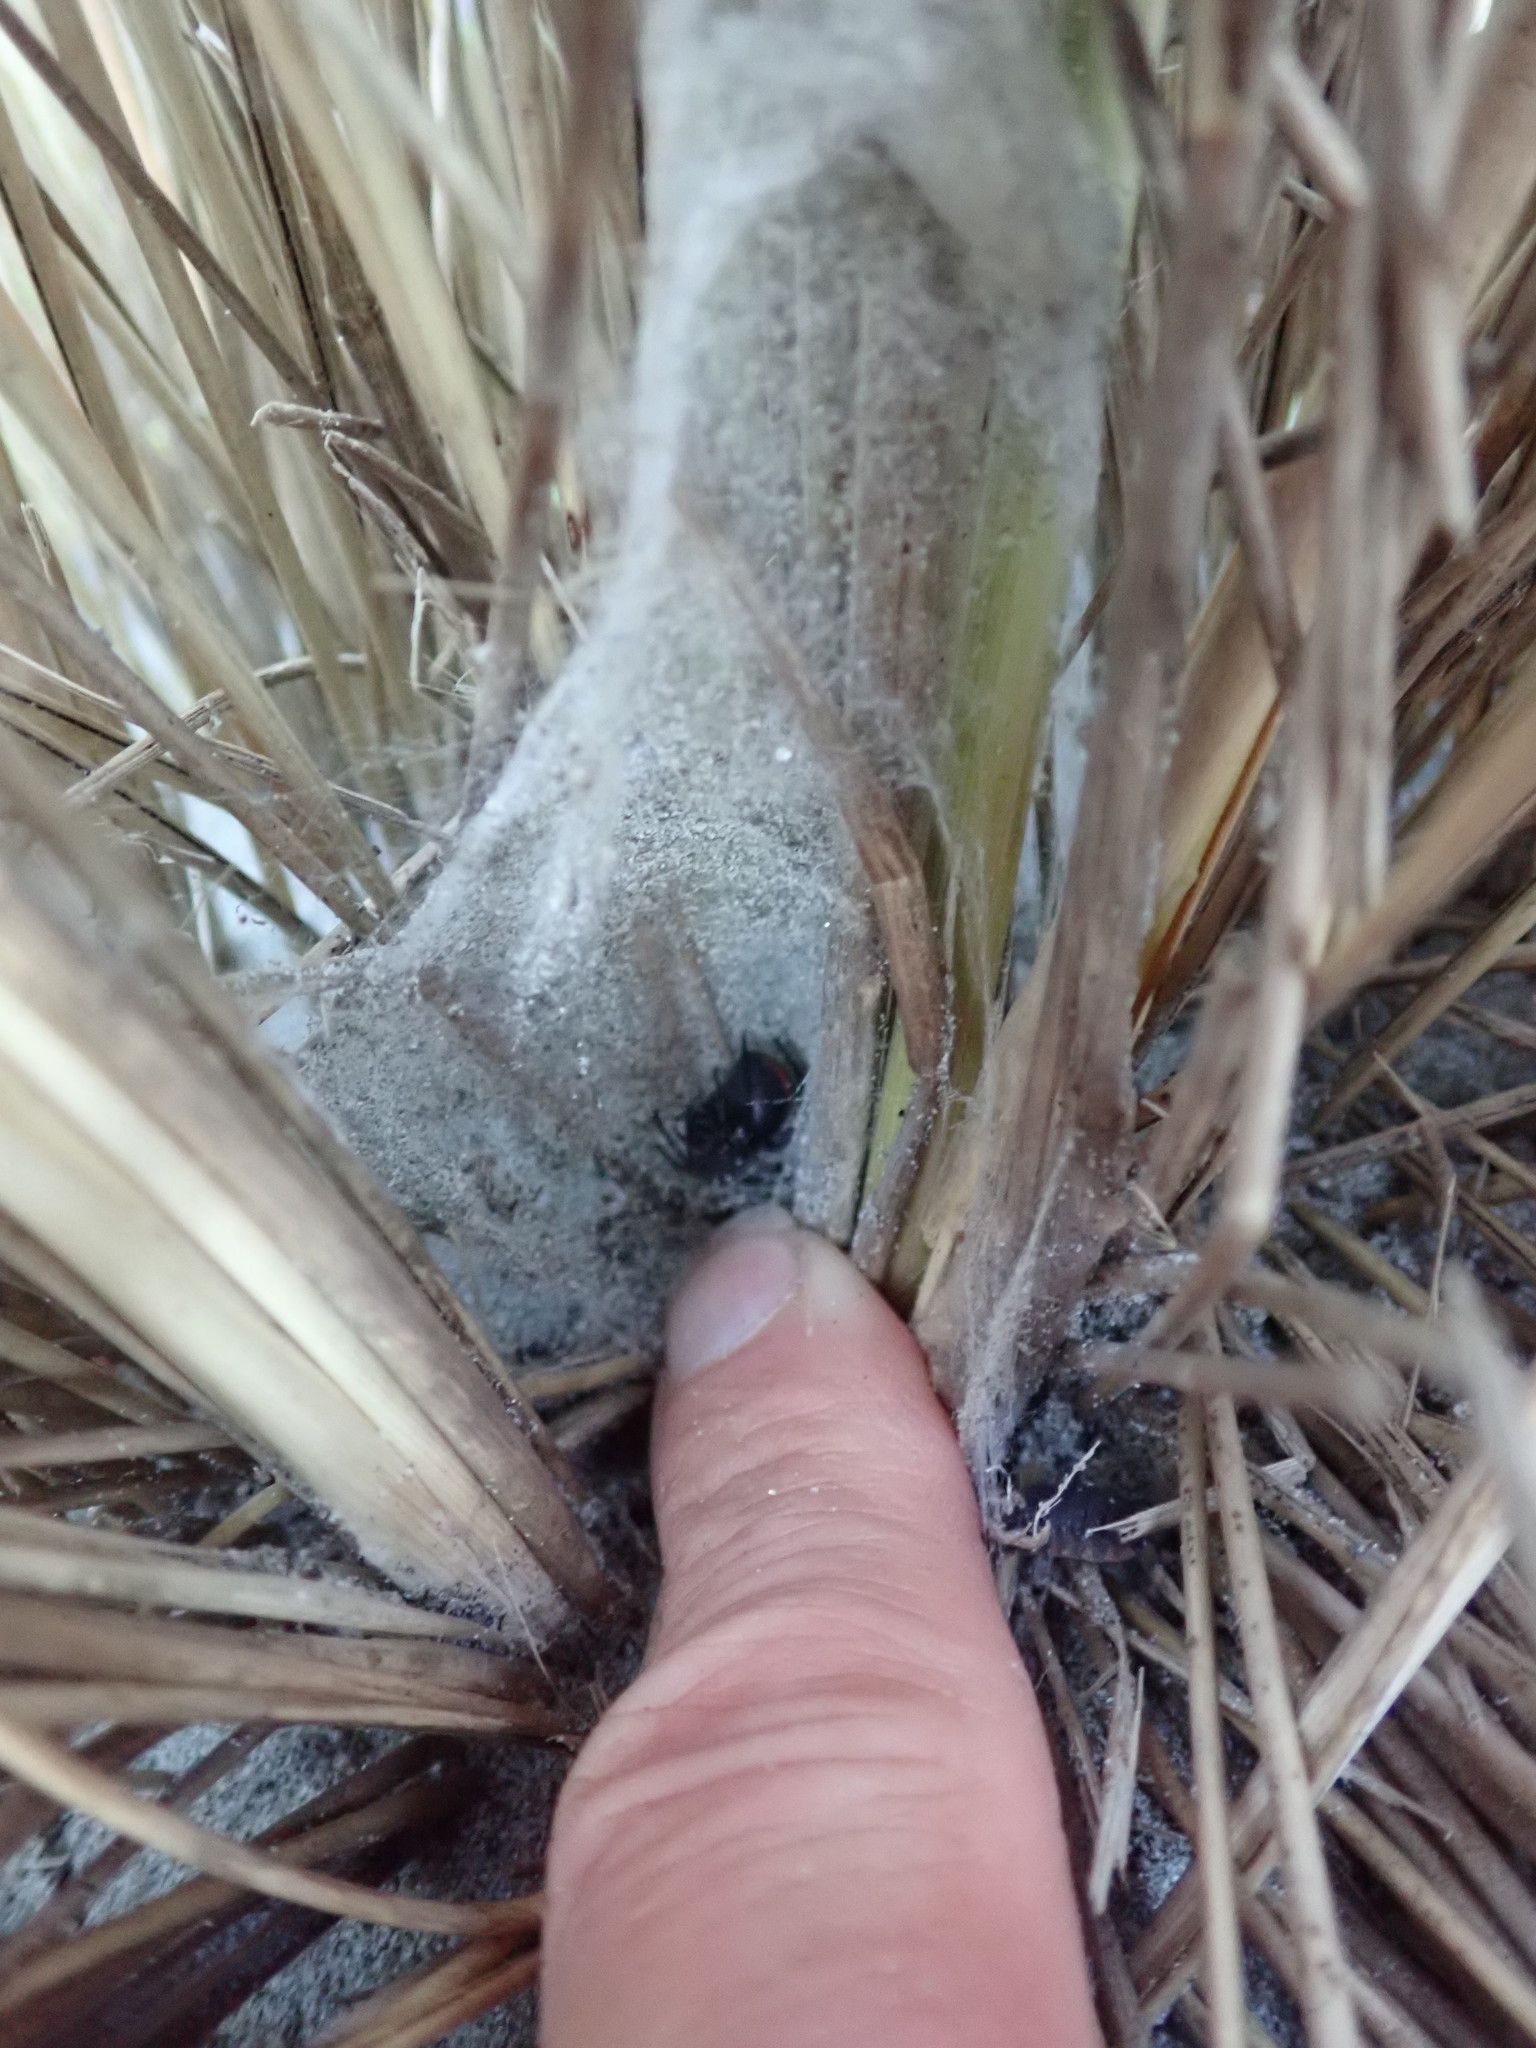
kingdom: Animalia
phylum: Arthropoda
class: Arachnida
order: Araneae
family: Theridiidae
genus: Latrodectus
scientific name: Latrodectus katipo
